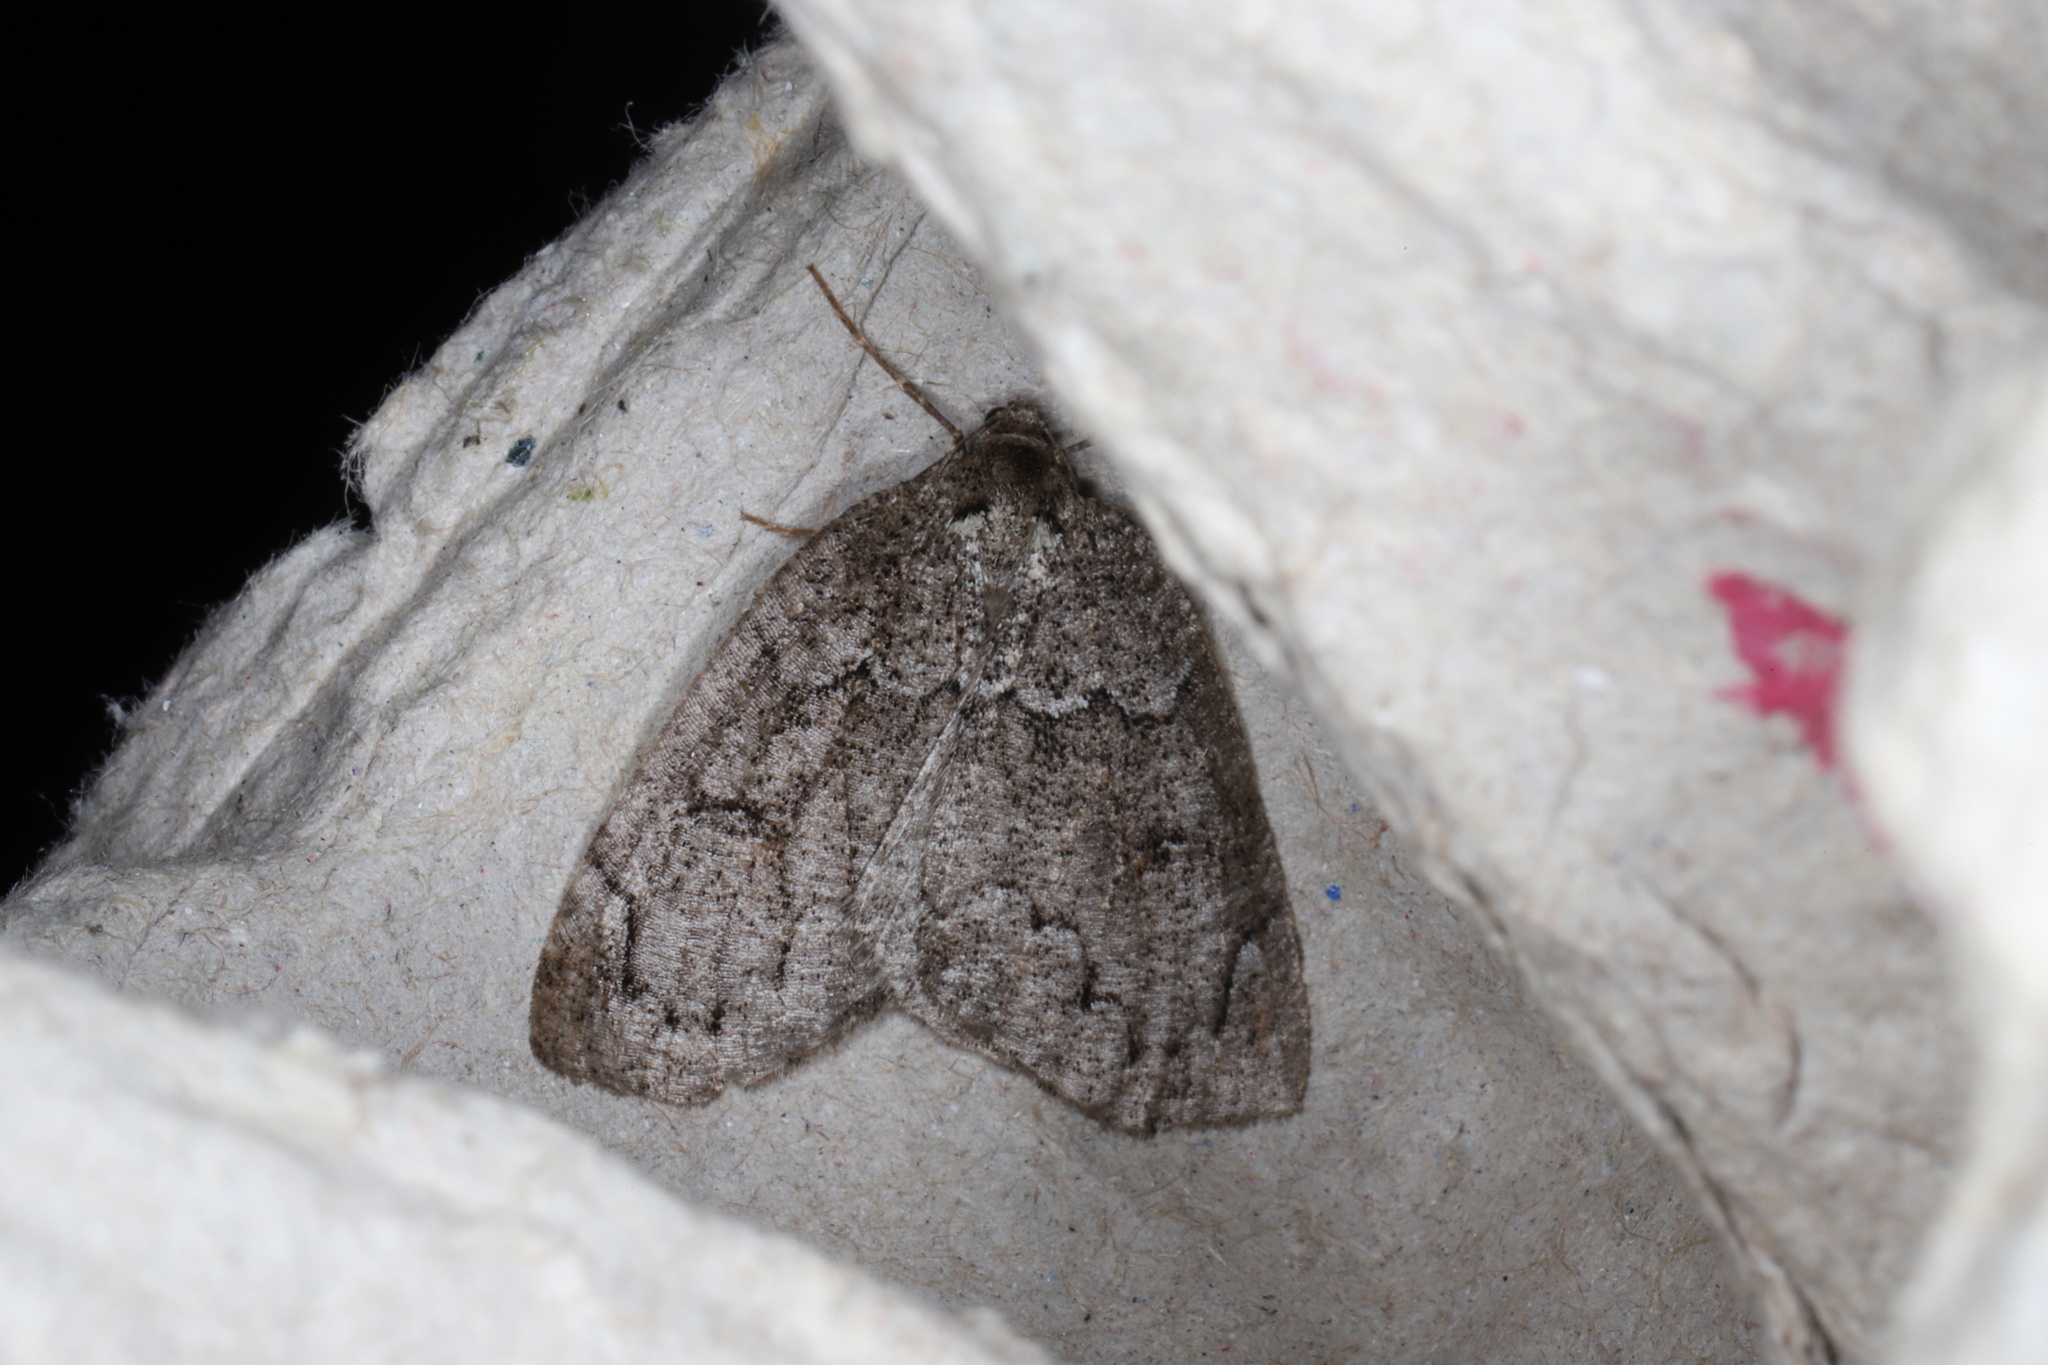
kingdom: Animalia
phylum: Arthropoda
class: Insecta
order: Lepidoptera
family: Geometridae
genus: Spodolepis
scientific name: Spodolepis substriataria
